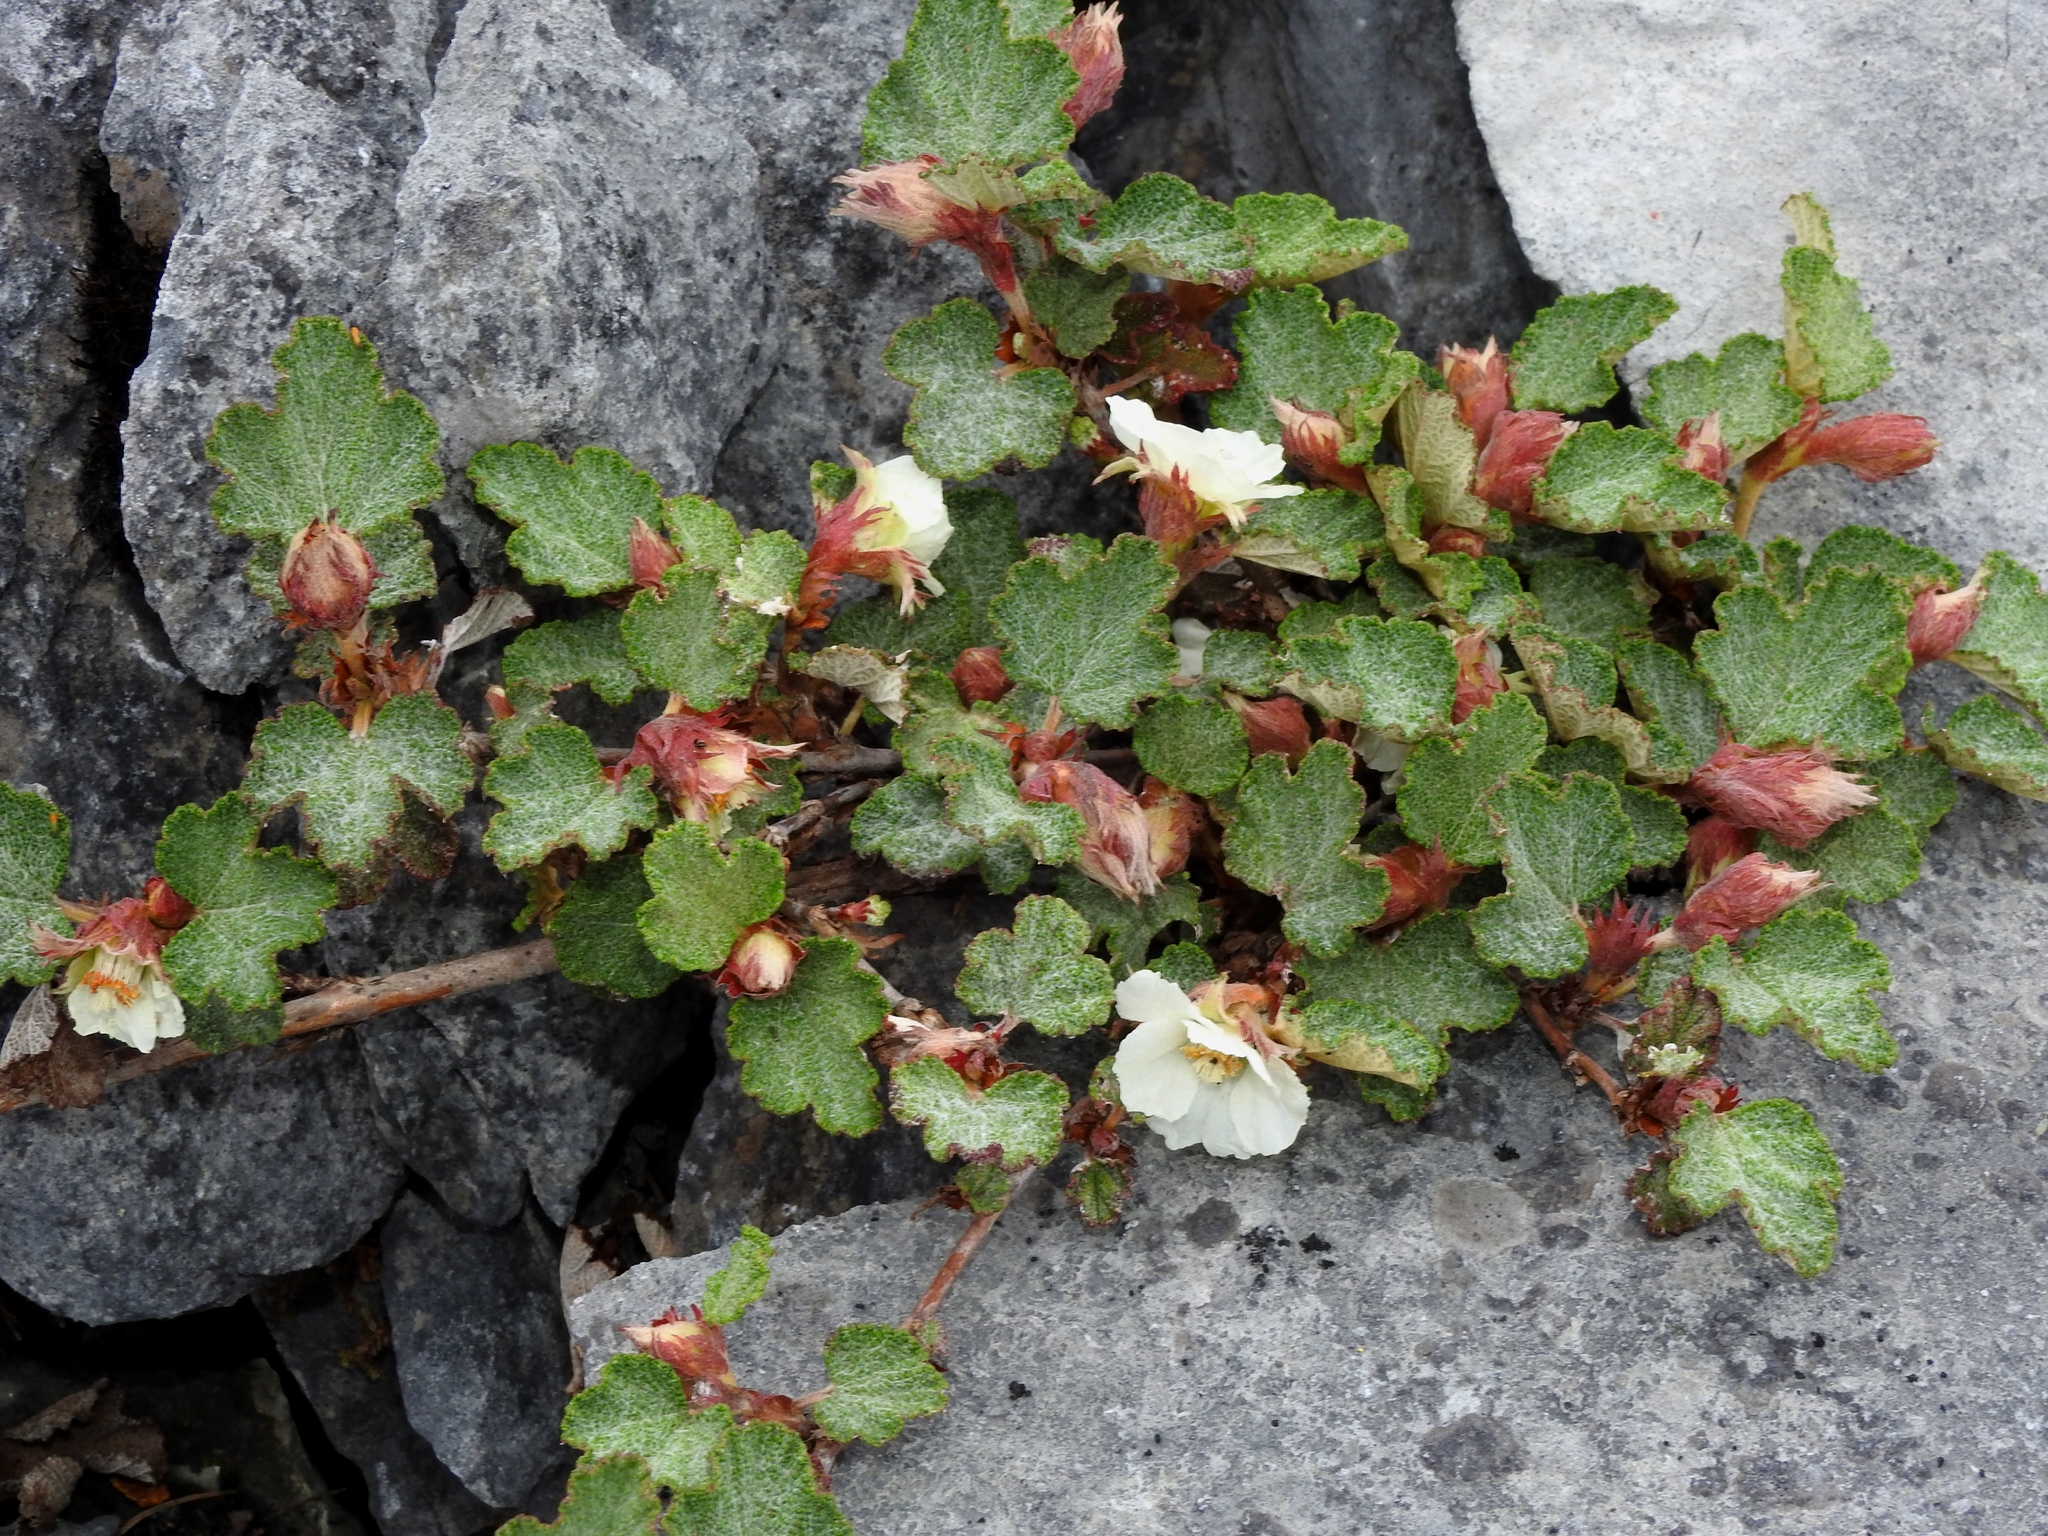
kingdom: Plantae
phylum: Tracheophyta
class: Magnoliopsida
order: Rosales
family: Rosaceae
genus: Rubus
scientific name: Rubus rolfei
